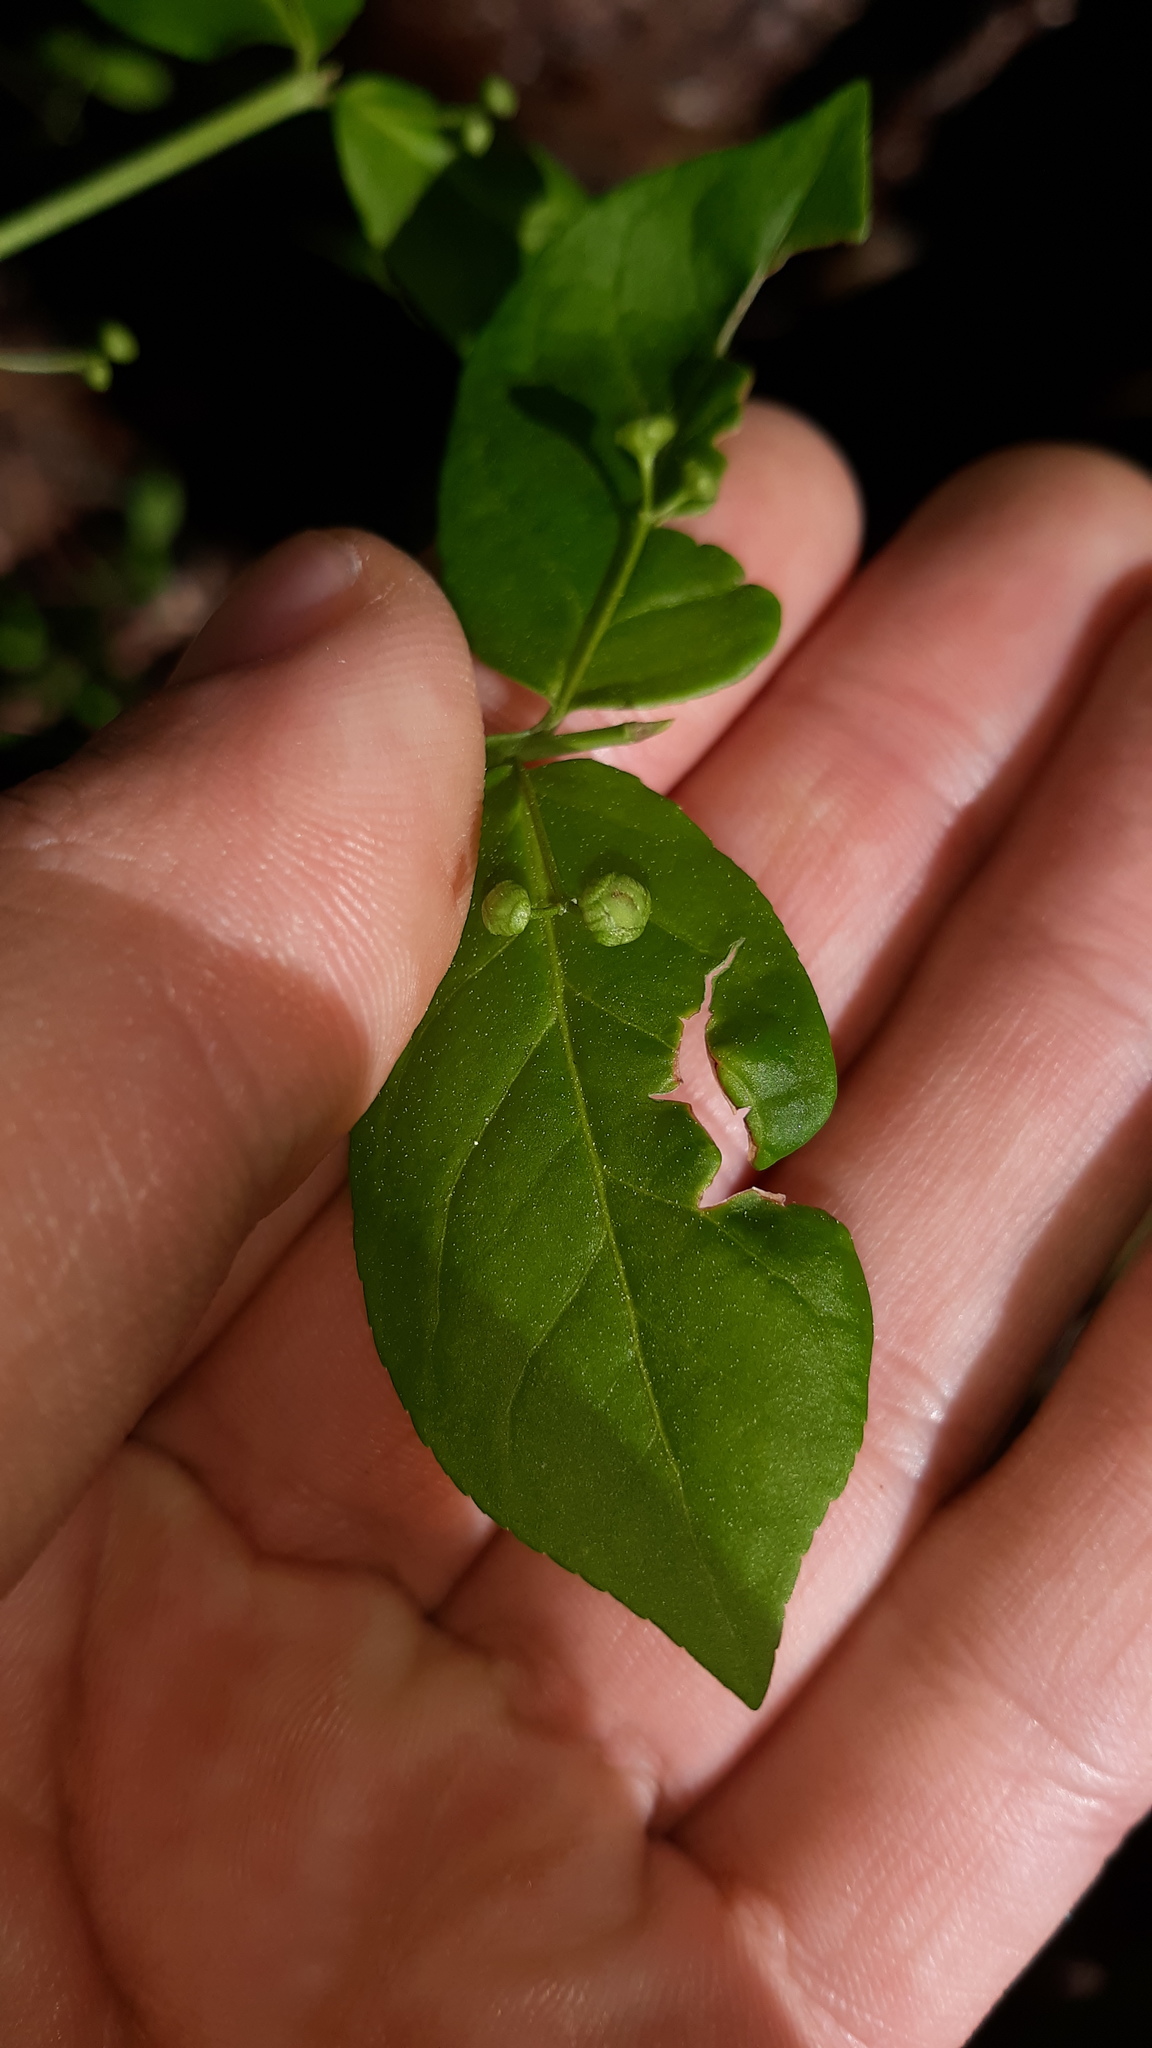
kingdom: Plantae
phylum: Tracheophyta
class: Magnoliopsida
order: Celastrales
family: Celastraceae
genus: Euonymus
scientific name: Euonymus americanus
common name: Bursting-heart
